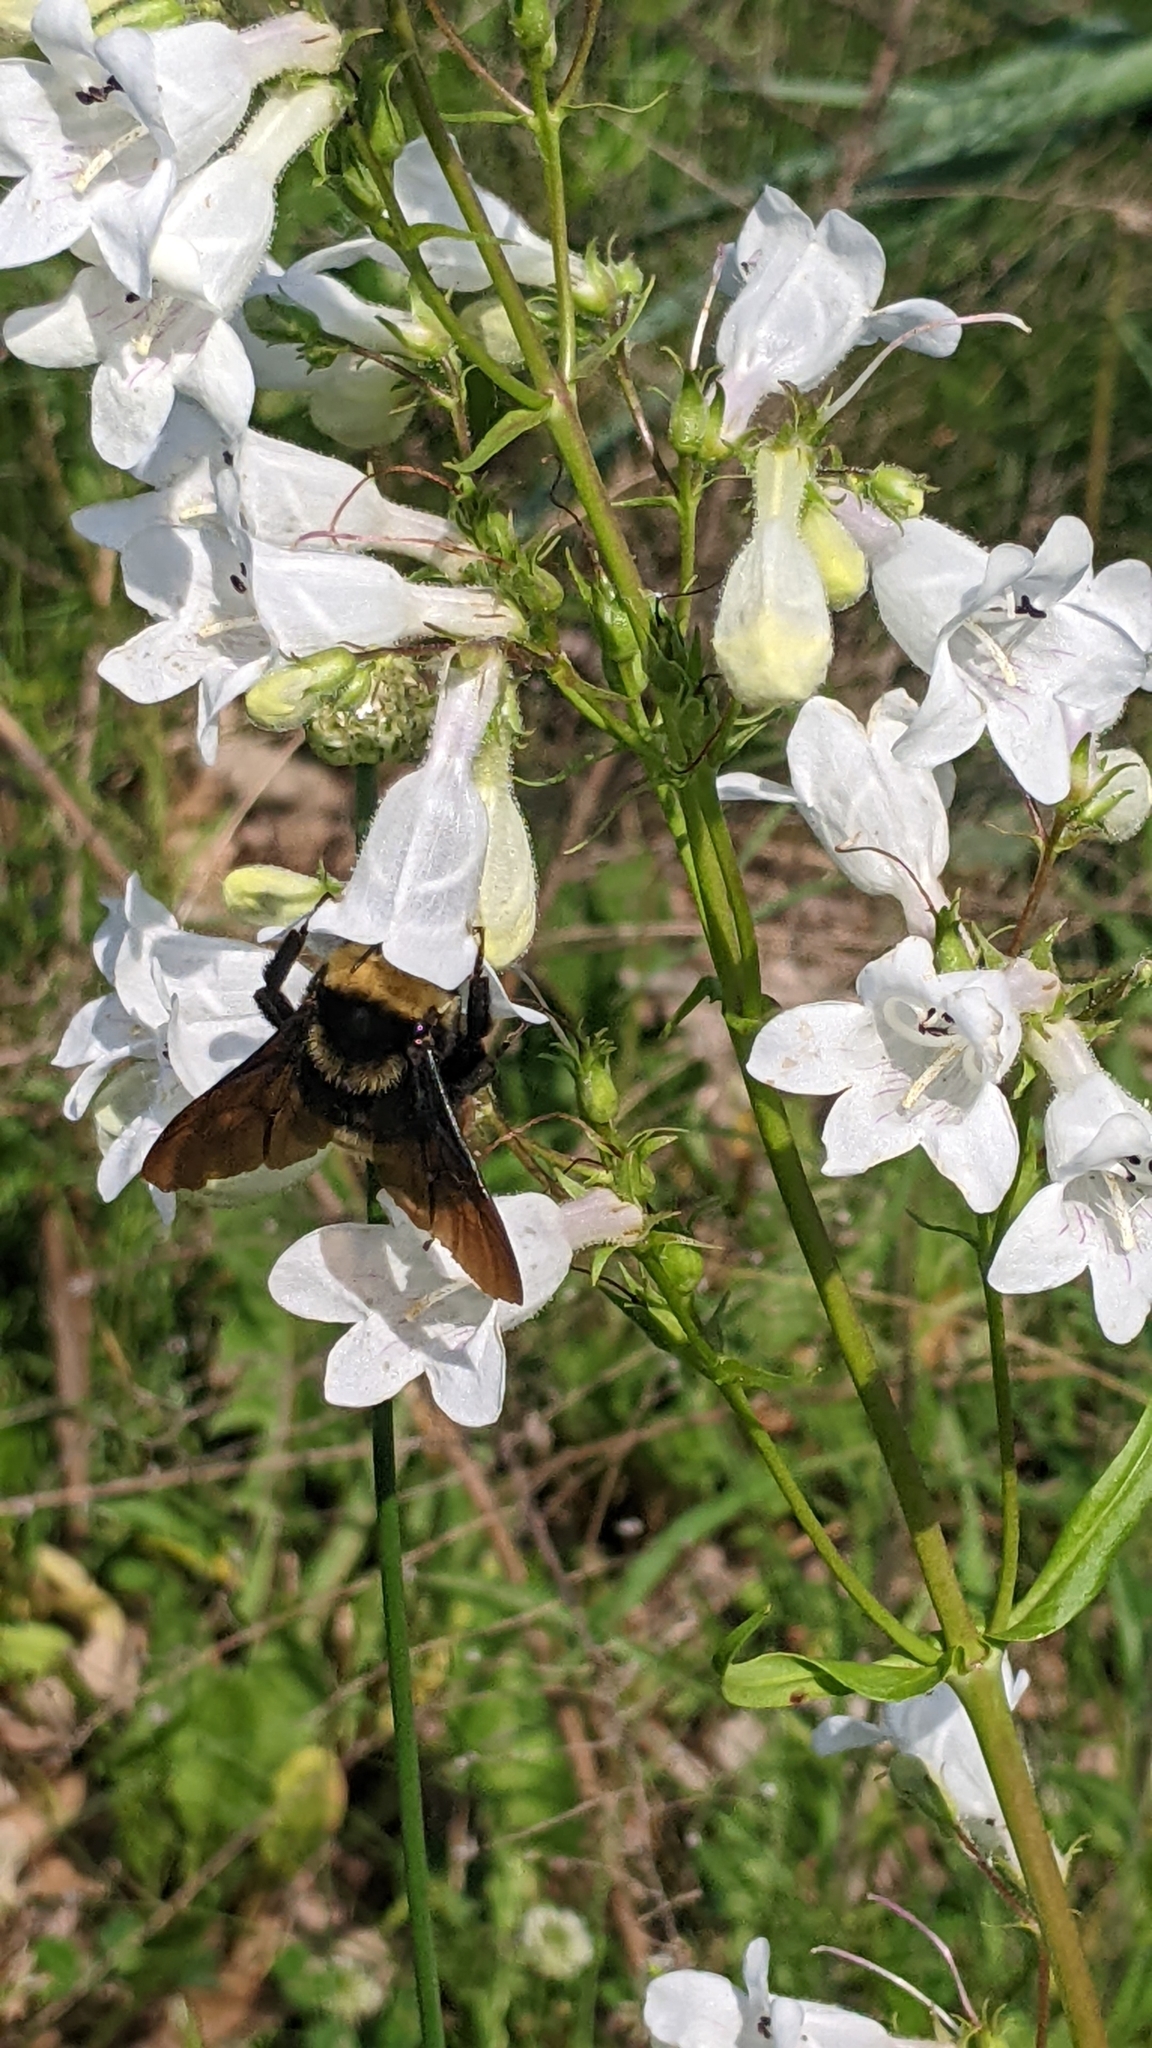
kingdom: Animalia
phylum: Arthropoda
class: Insecta
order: Hymenoptera
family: Apidae
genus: Bombus
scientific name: Bombus auricomus
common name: Black and gold bumble bee
